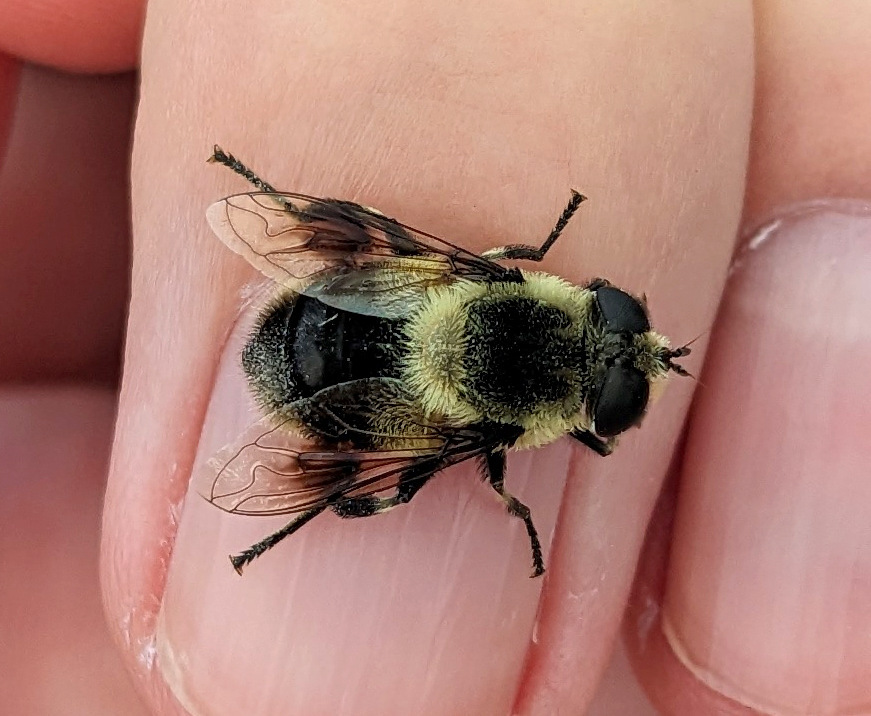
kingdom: Animalia
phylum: Arthropoda
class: Insecta
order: Diptera
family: Syrphidae
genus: Eristalis
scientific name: Eristalis anthophorina
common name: Orange-spotted drone fly
